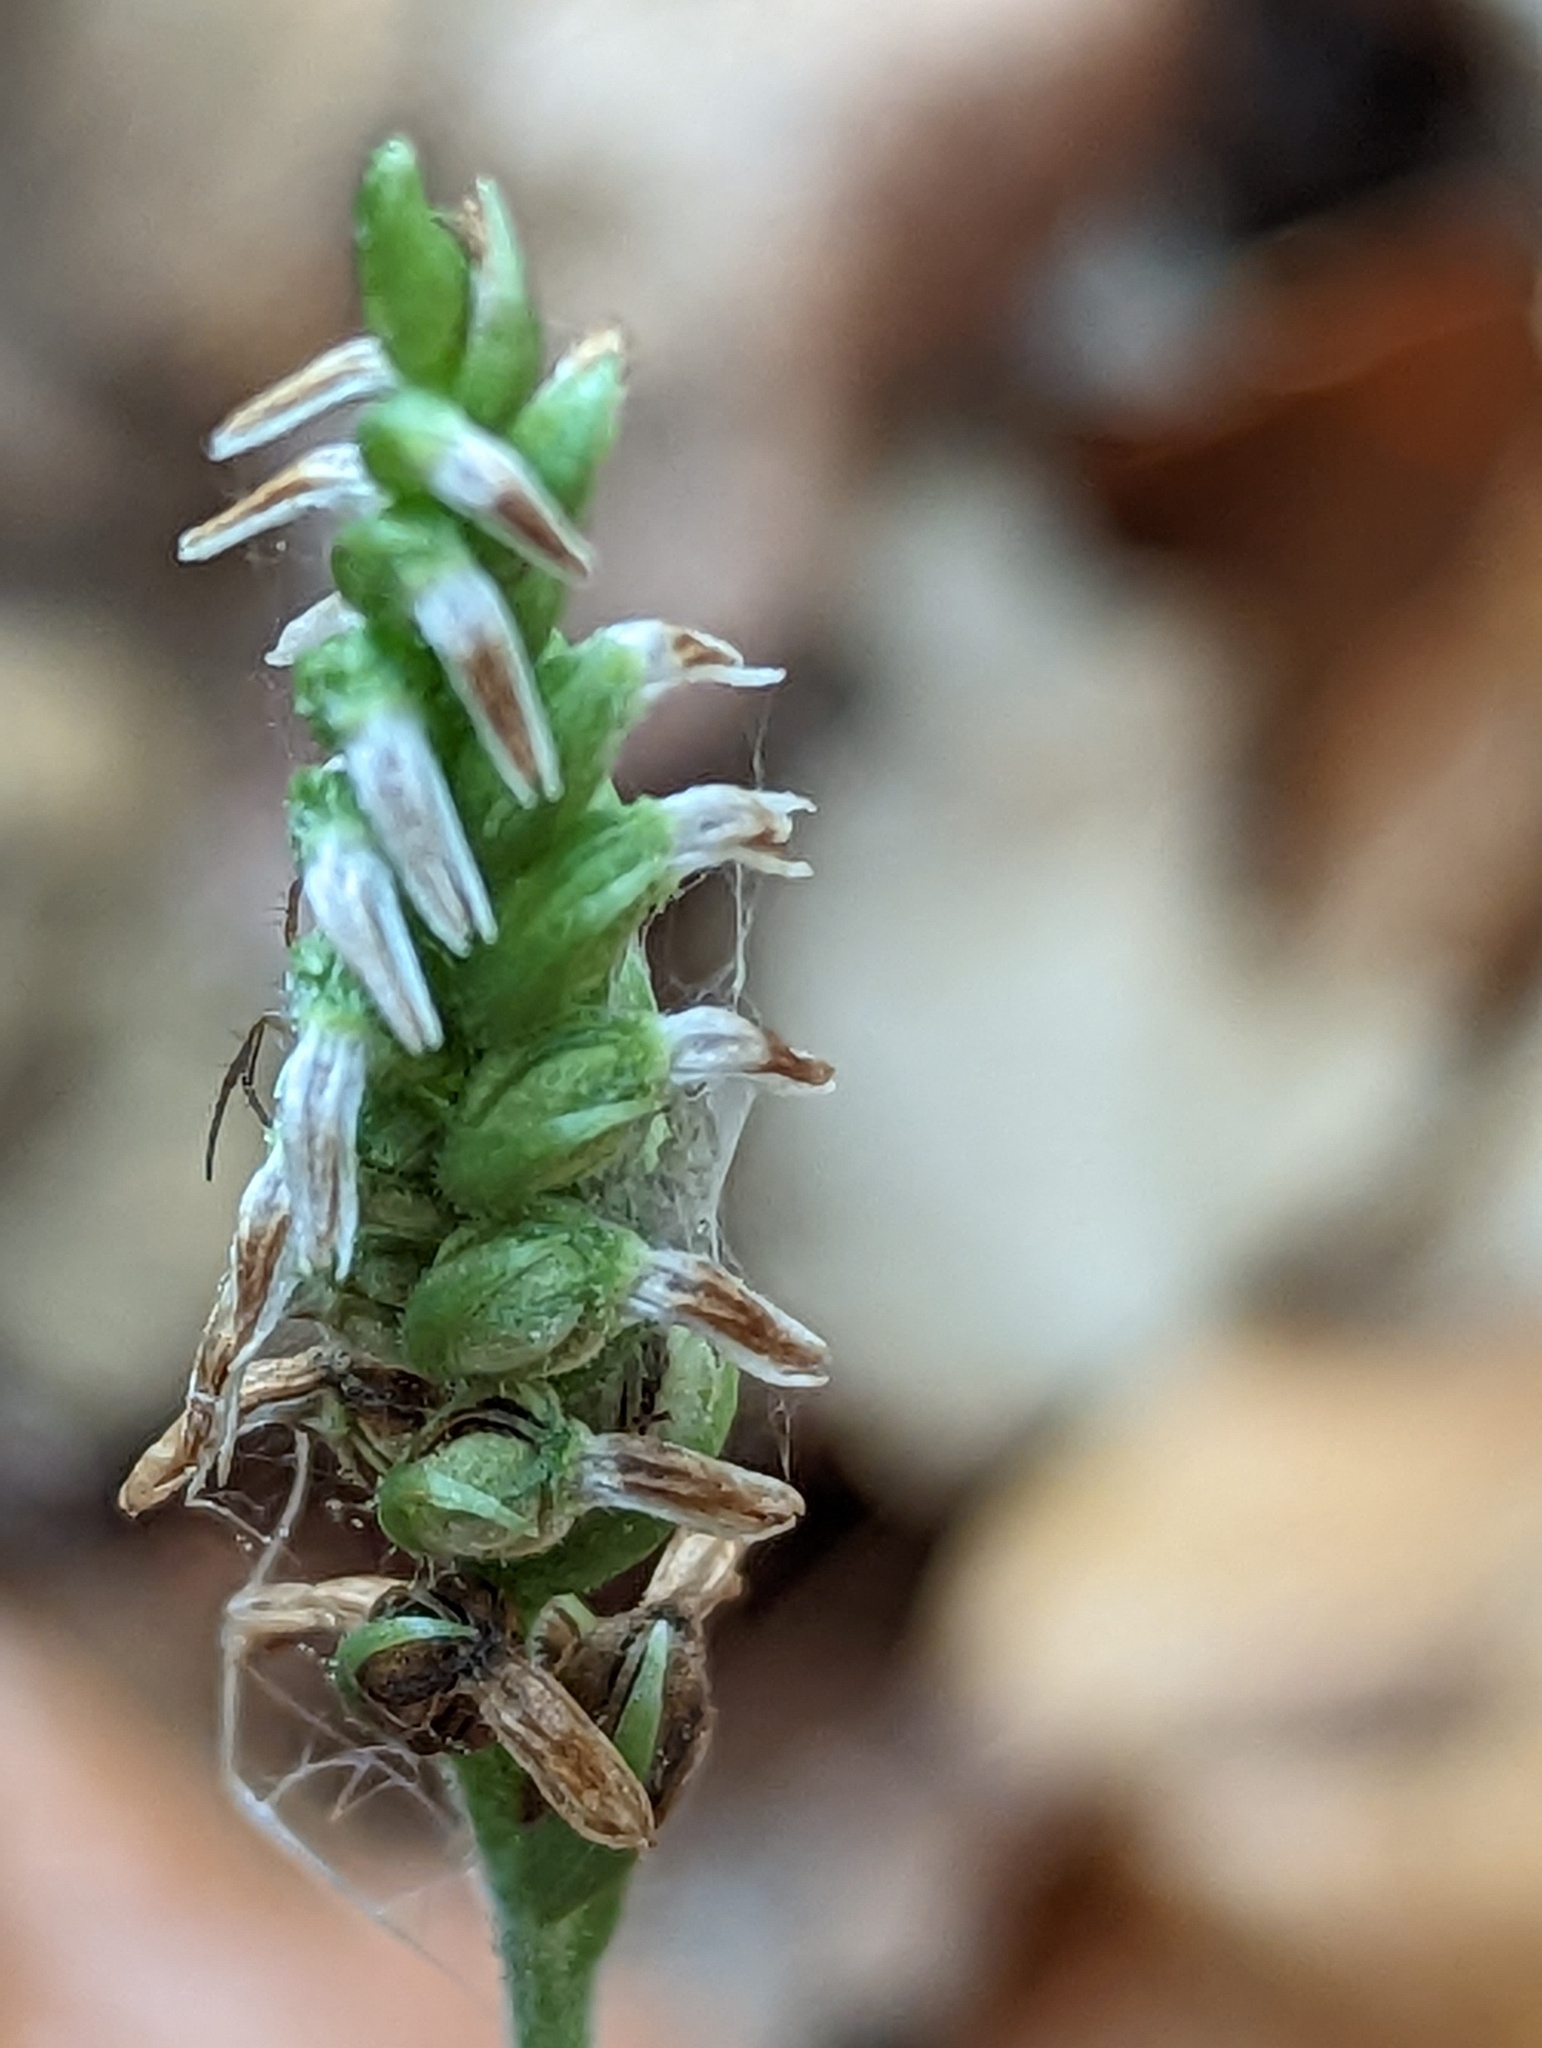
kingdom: Plantae
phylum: Tracheophyta
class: Liliopsida
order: Asparagales
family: Orchidaceae
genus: Spiranthes
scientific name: Spiranthes ovalis
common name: October ladies'-tresses
